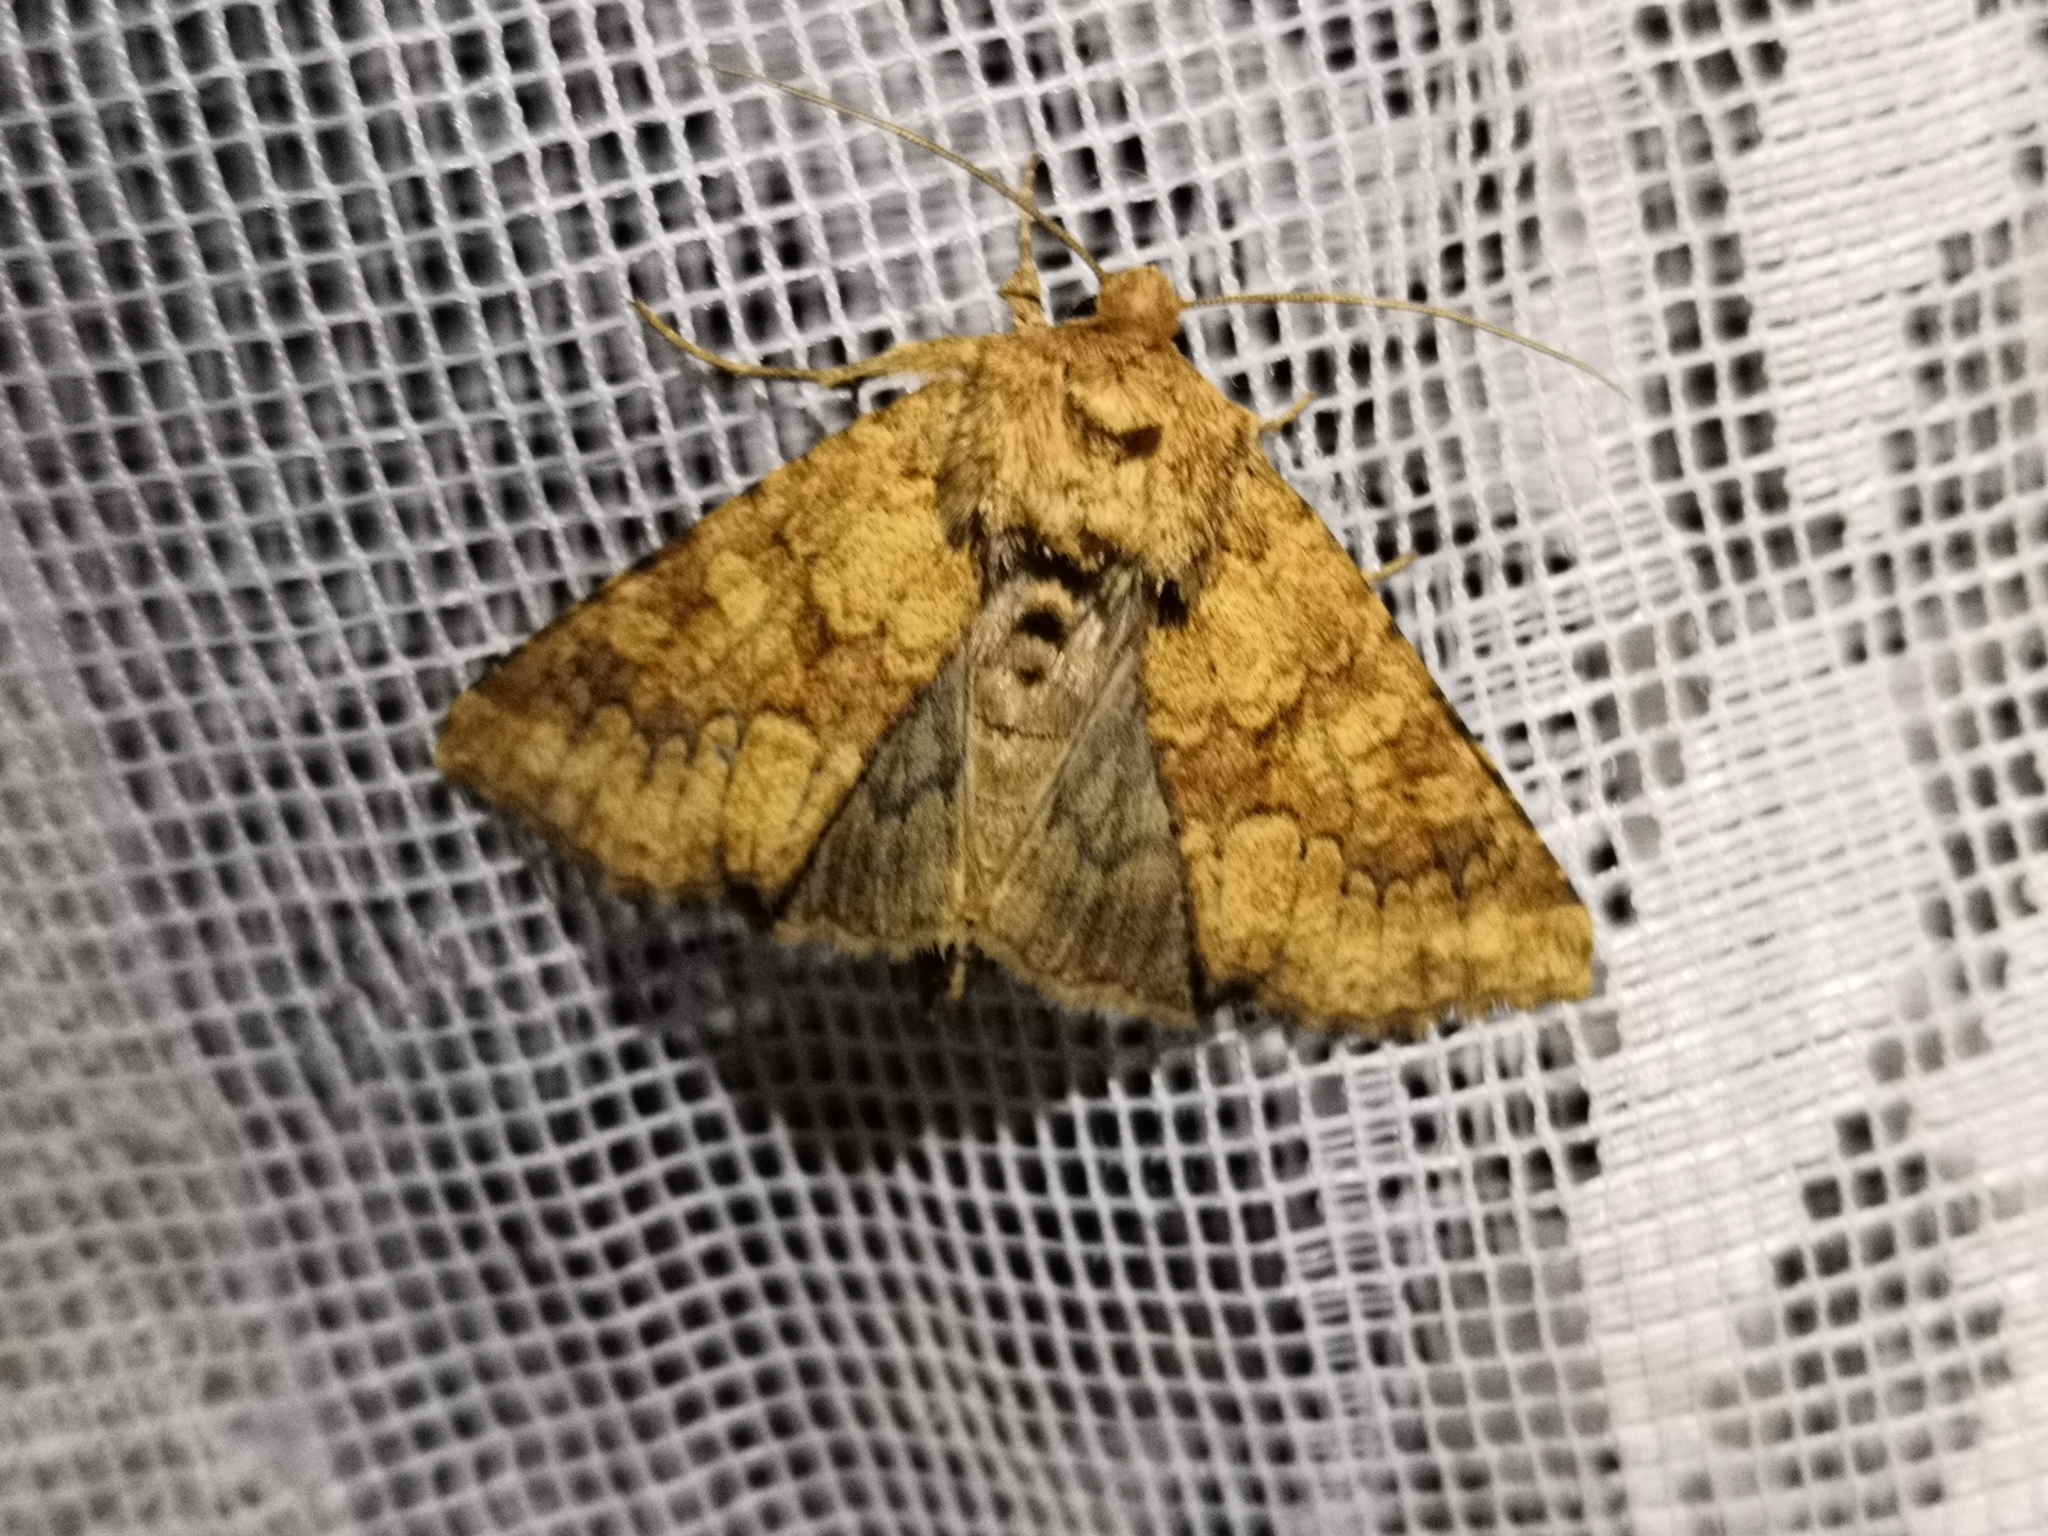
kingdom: Animalia
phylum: Arthropoda
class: Insecta
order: Lepidoptera
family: Noctuidae
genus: Conisania
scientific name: Conisania luteago
